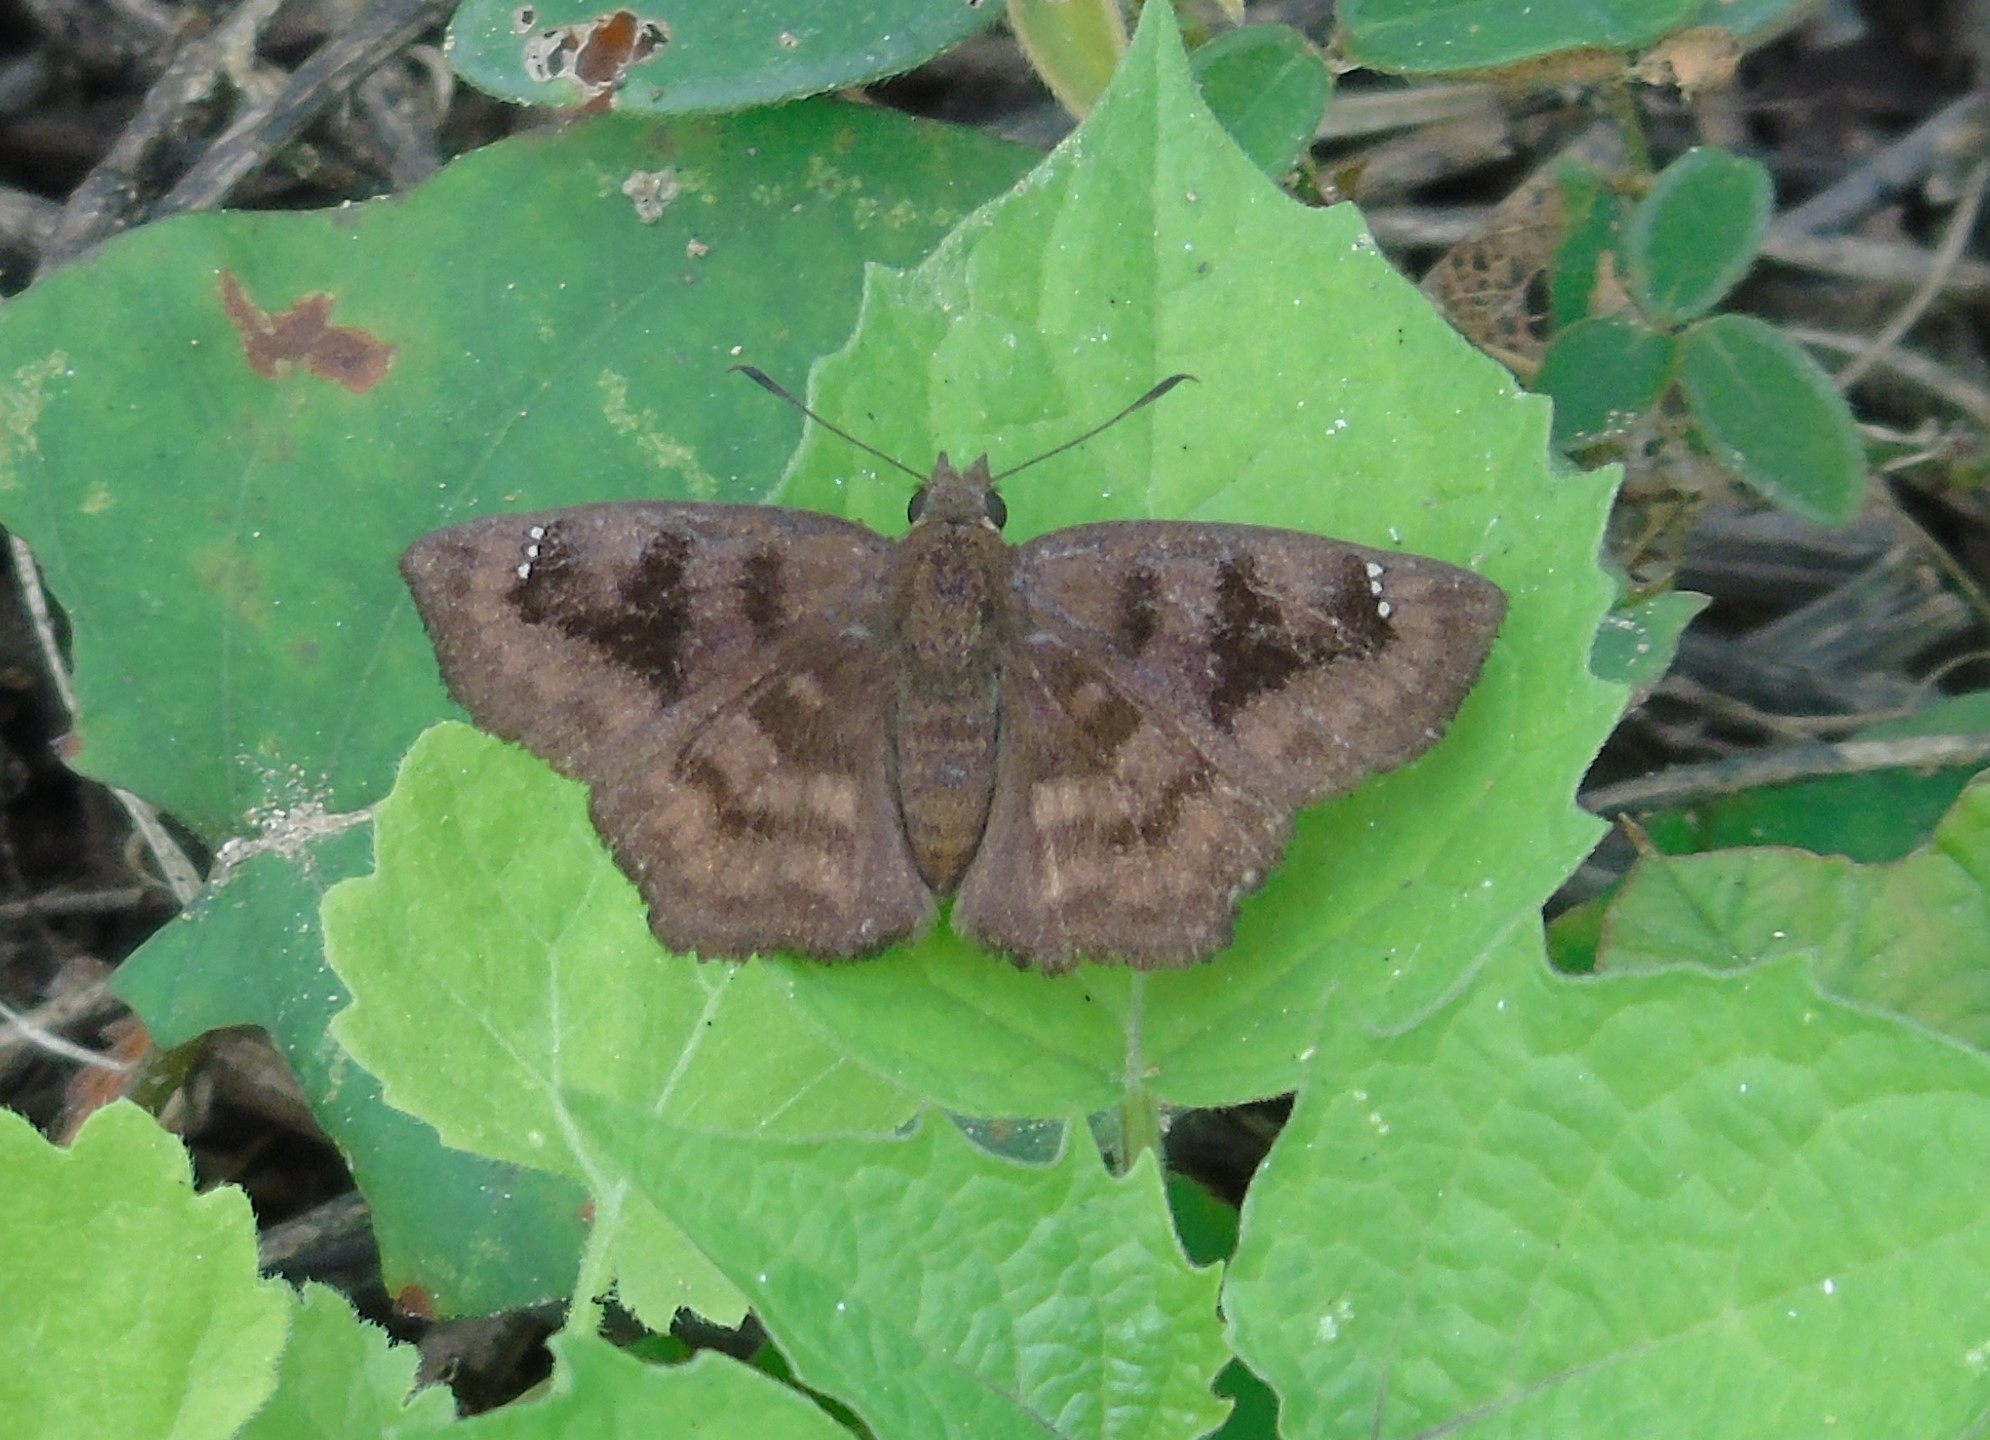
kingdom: Animalia
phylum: Arthropoda
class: Insecta
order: Lepidoptera
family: Hesperiidae
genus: Nisoniades
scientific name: Nisoniades
